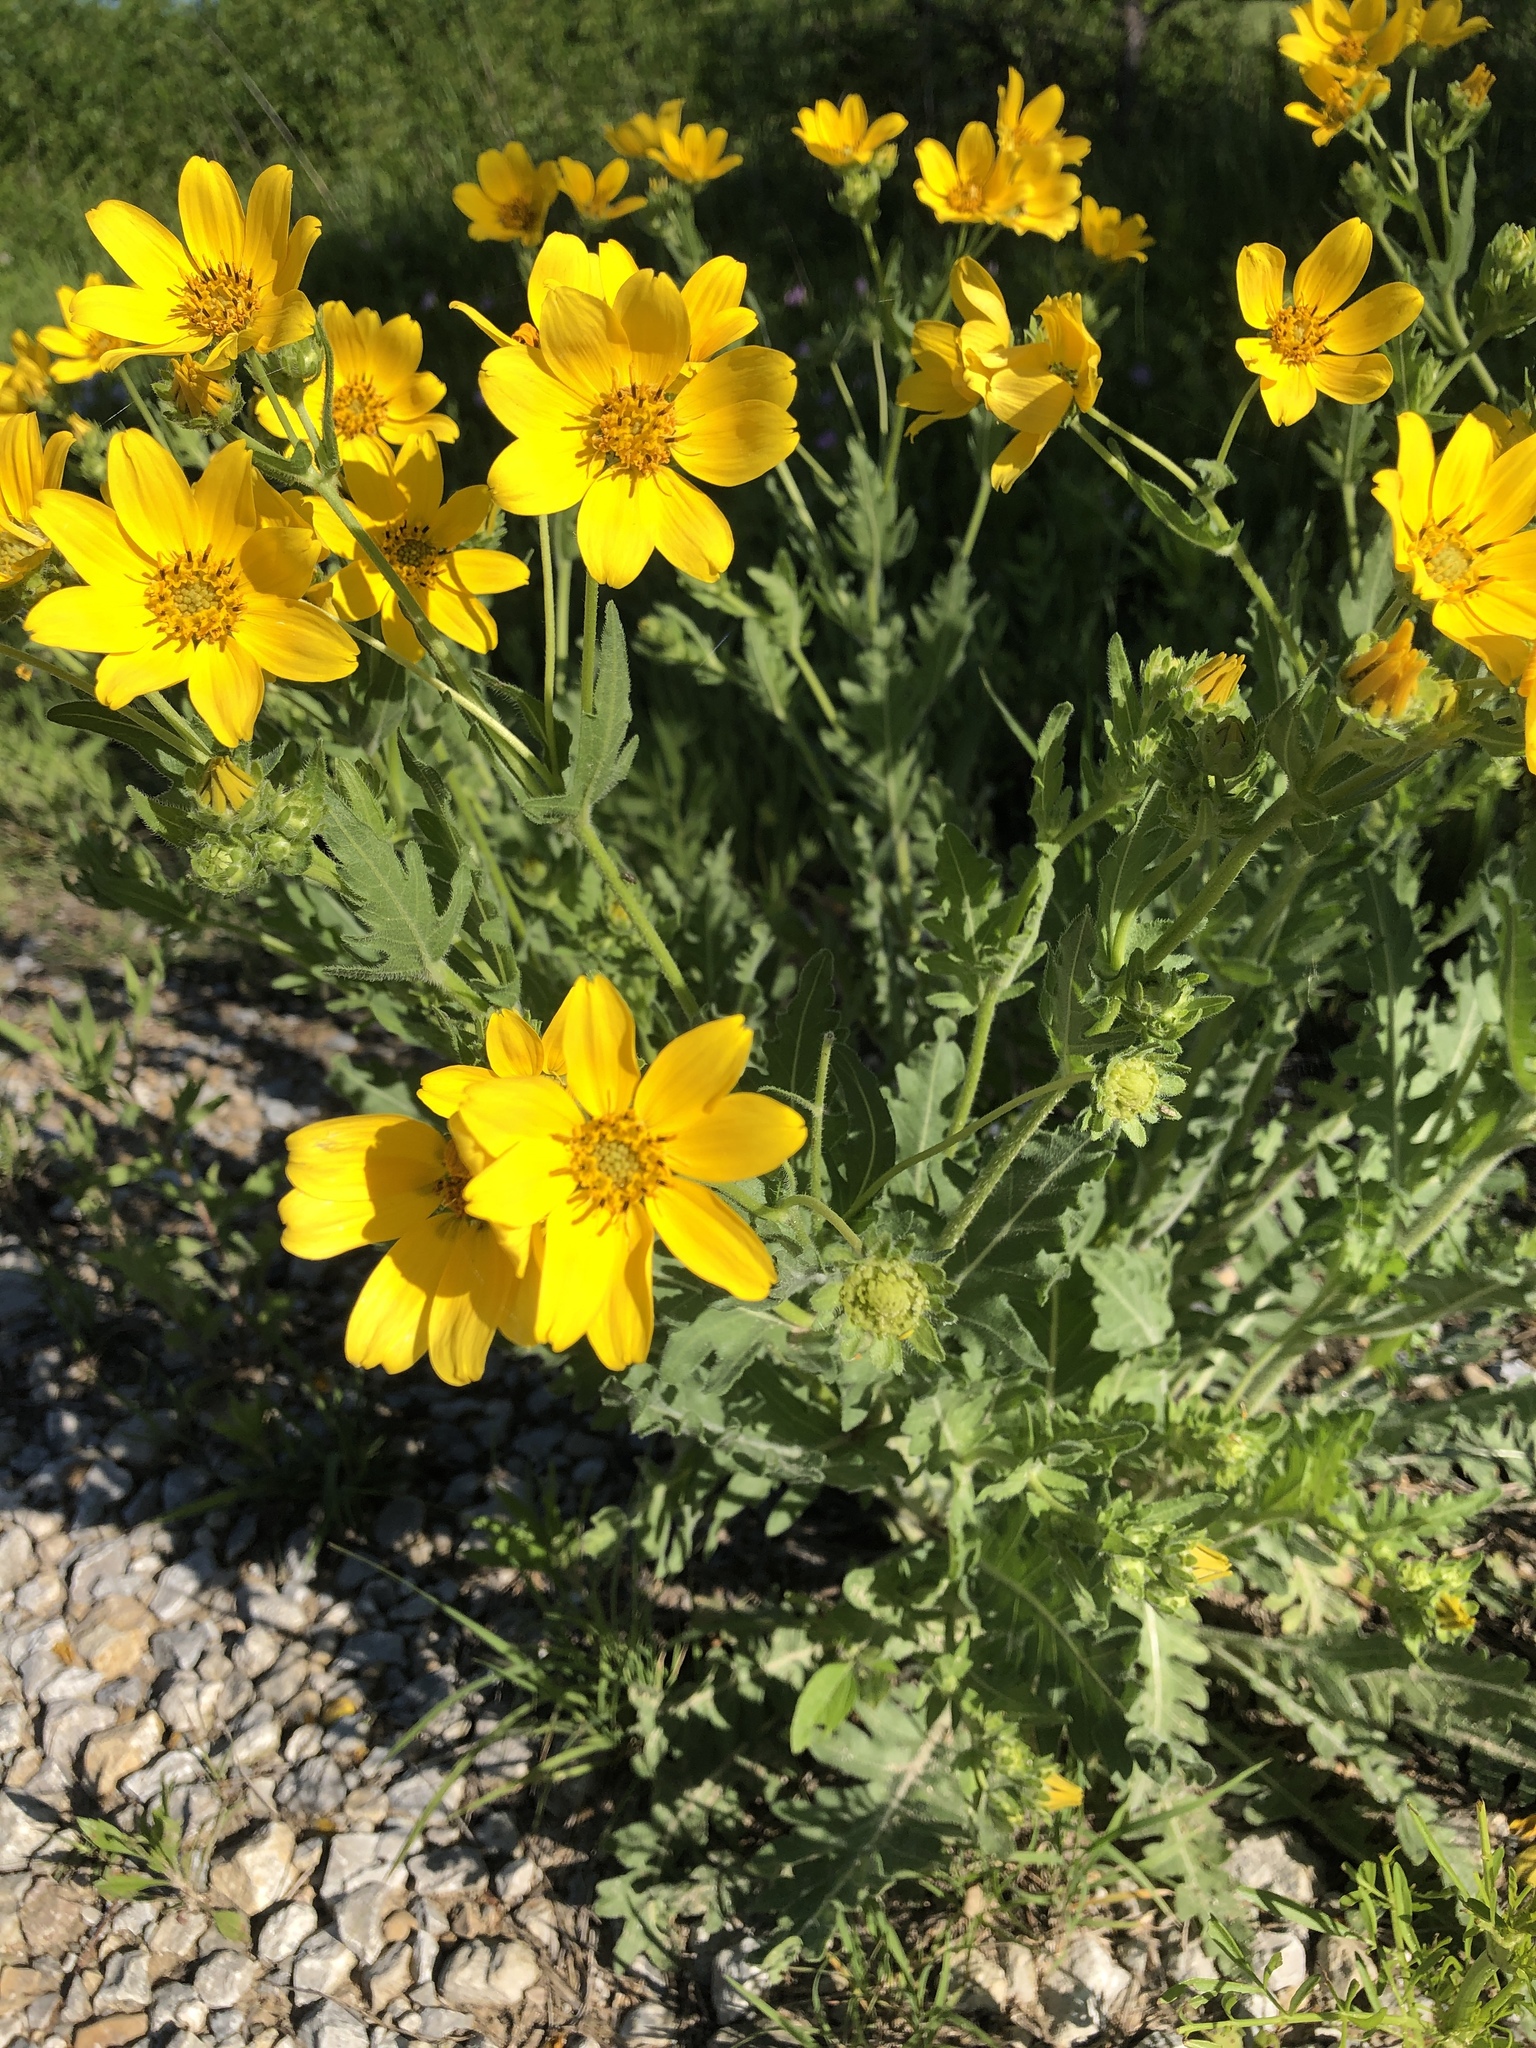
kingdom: Plantae
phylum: Tracheophyta
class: Magnoliopsida
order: Asterales
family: Asteraceae
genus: Engelmannia
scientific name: Engelmannia peristenia
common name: Engelmann's daisy
